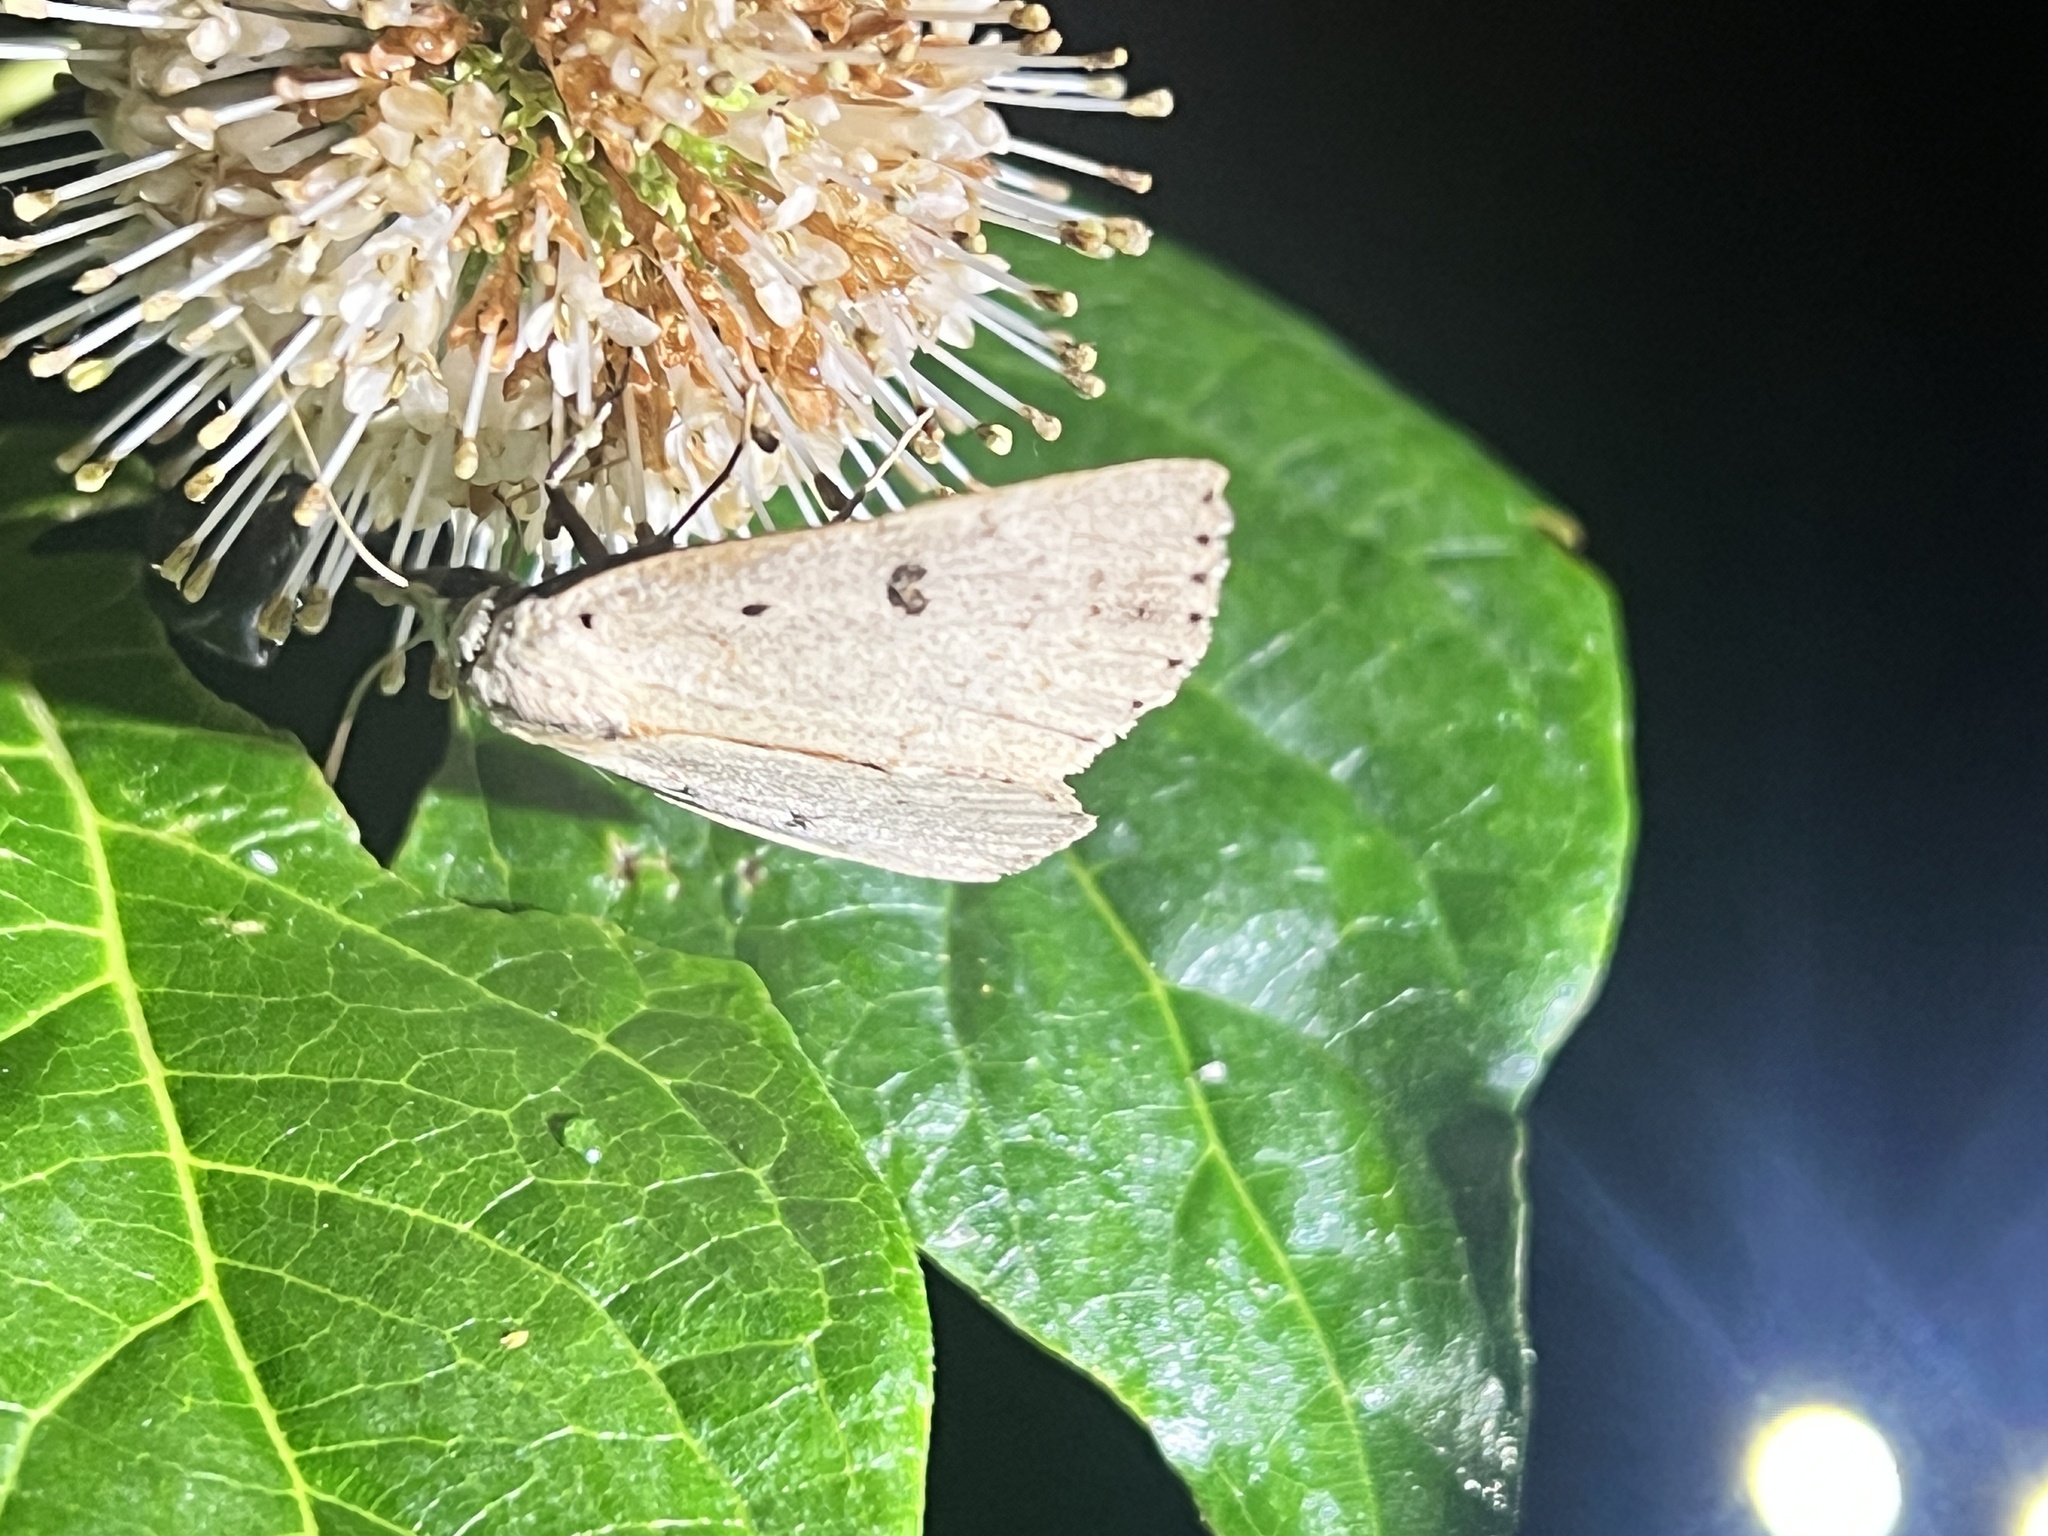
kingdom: Animalia
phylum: Arthropoda
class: Insecta
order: Lepidoptera
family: Erebidae
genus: Scolecocampa
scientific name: Scolecocampa liburna
